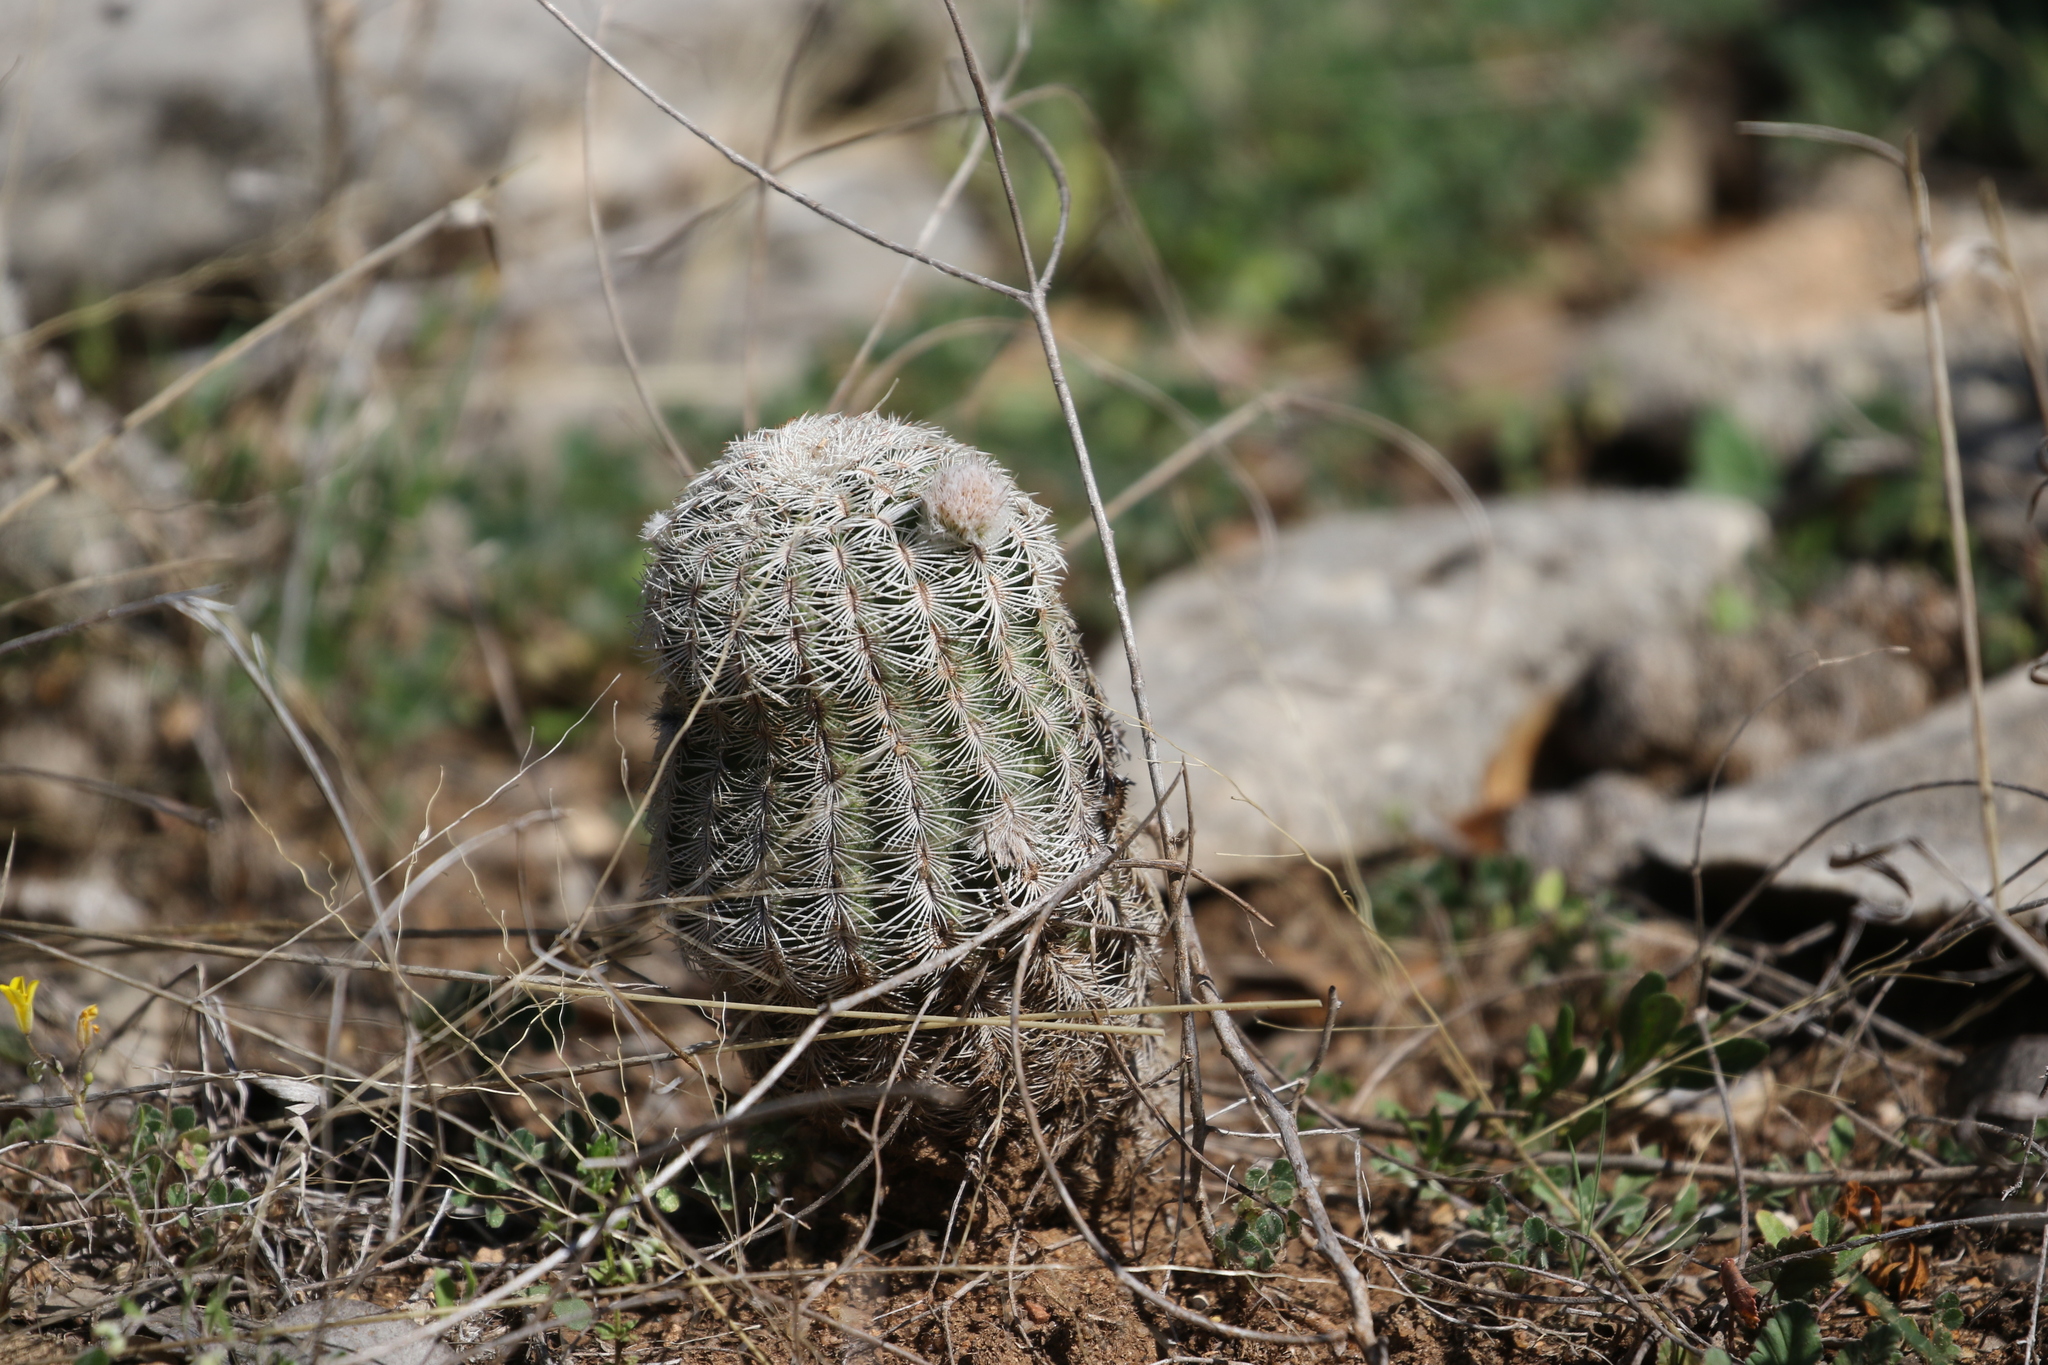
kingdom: Plantae
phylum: Tracheophyta
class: Magnoliopsida
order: Caryophyllales
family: Cactaceae
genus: Echinocereus
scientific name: Echinocereus reichenbachii
